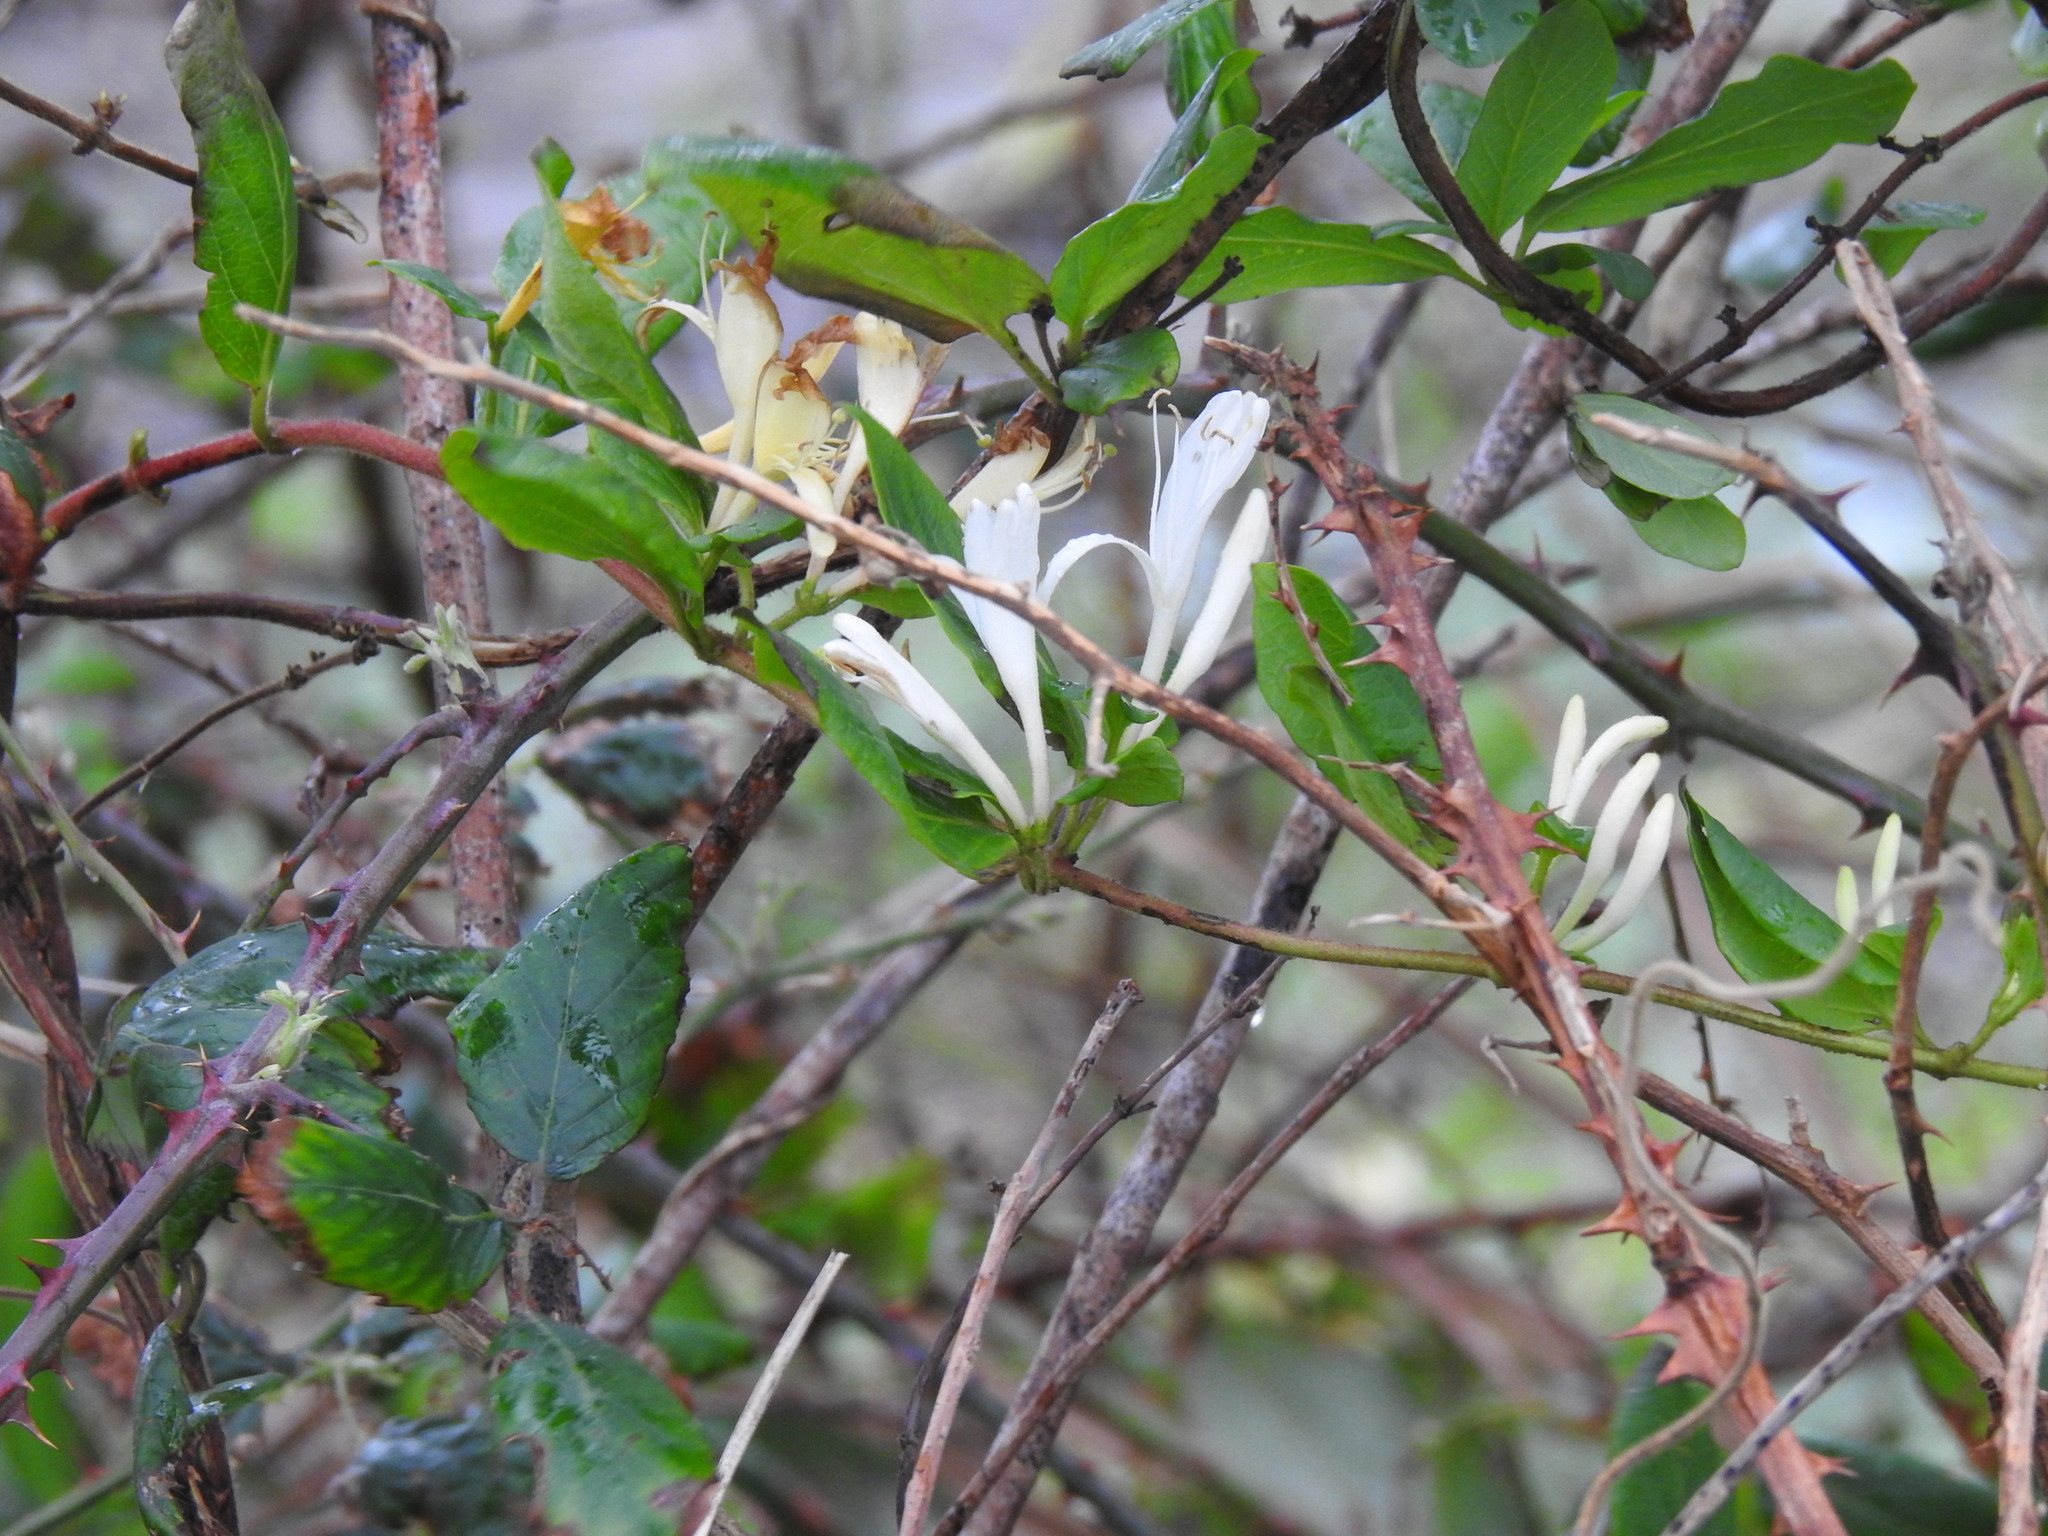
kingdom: Plantae
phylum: Tracheophyta
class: Magnoliopsida
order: Dipsacales
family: Caprifoliaceae
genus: Lonicera
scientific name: Lonicera japonica
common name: Japanese honeysuckle
